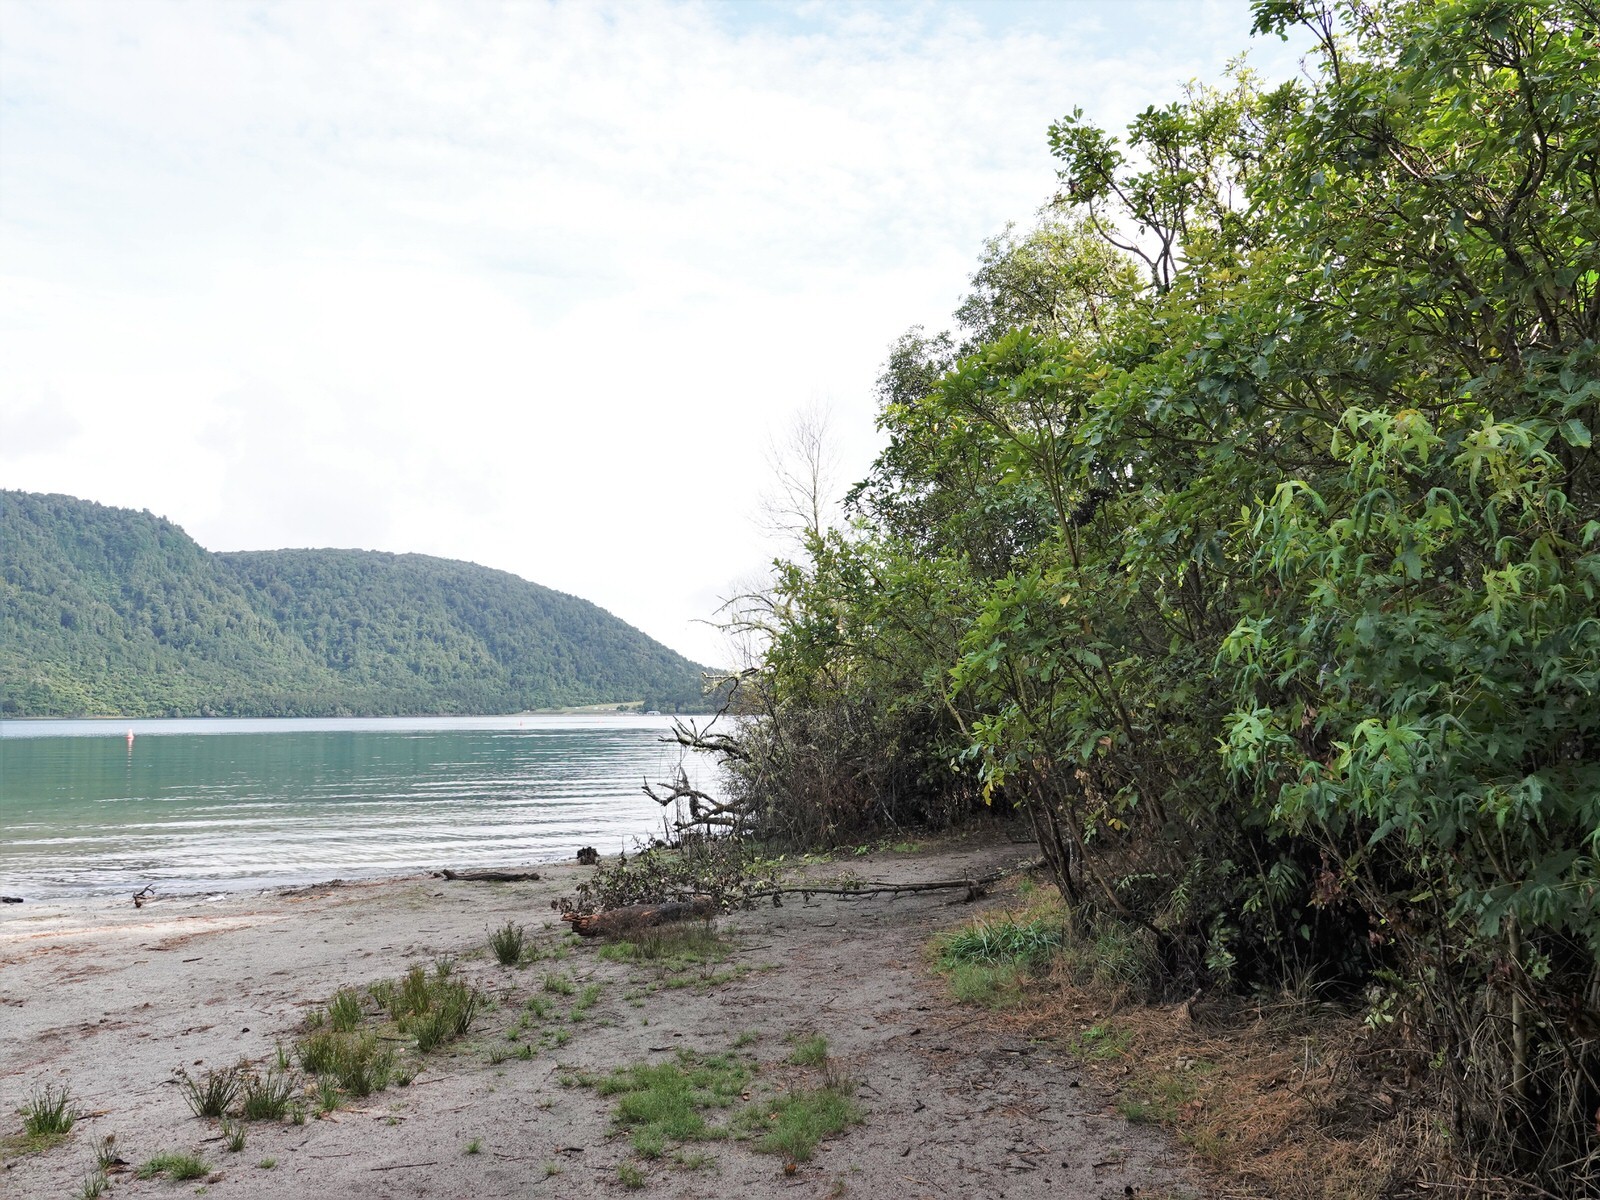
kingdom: Animalia
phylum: Chordata
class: Aves
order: Passeriformes
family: Acanthizidae
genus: Mohoua
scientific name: Mohoua albicilla
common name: Whitehead
